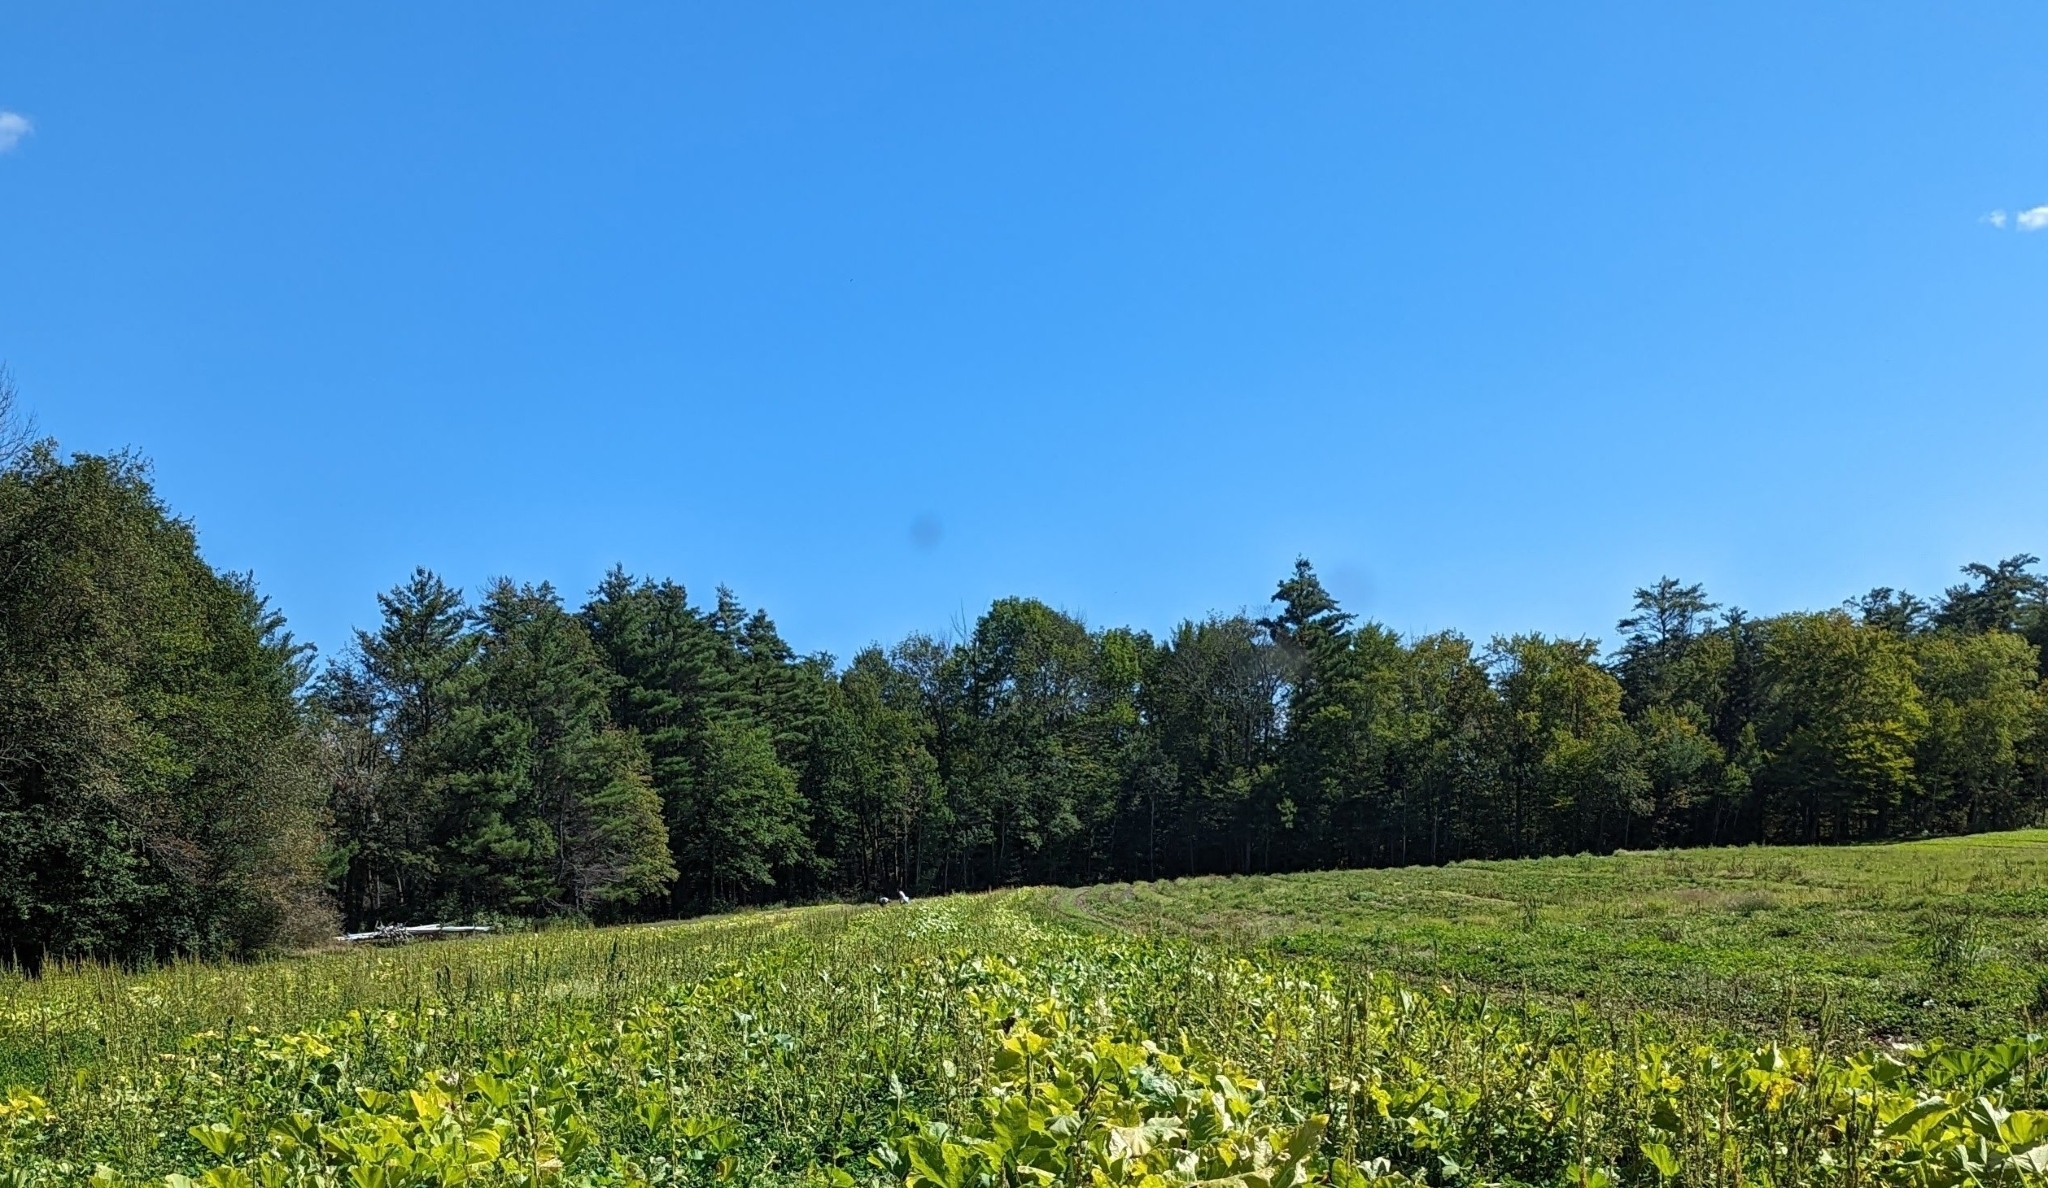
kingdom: Plantae
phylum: Tracheophyta
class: Pinopsida
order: Pinales
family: Pinaceae
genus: Pinus
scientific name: Pinus strobus
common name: Weymouth pine
